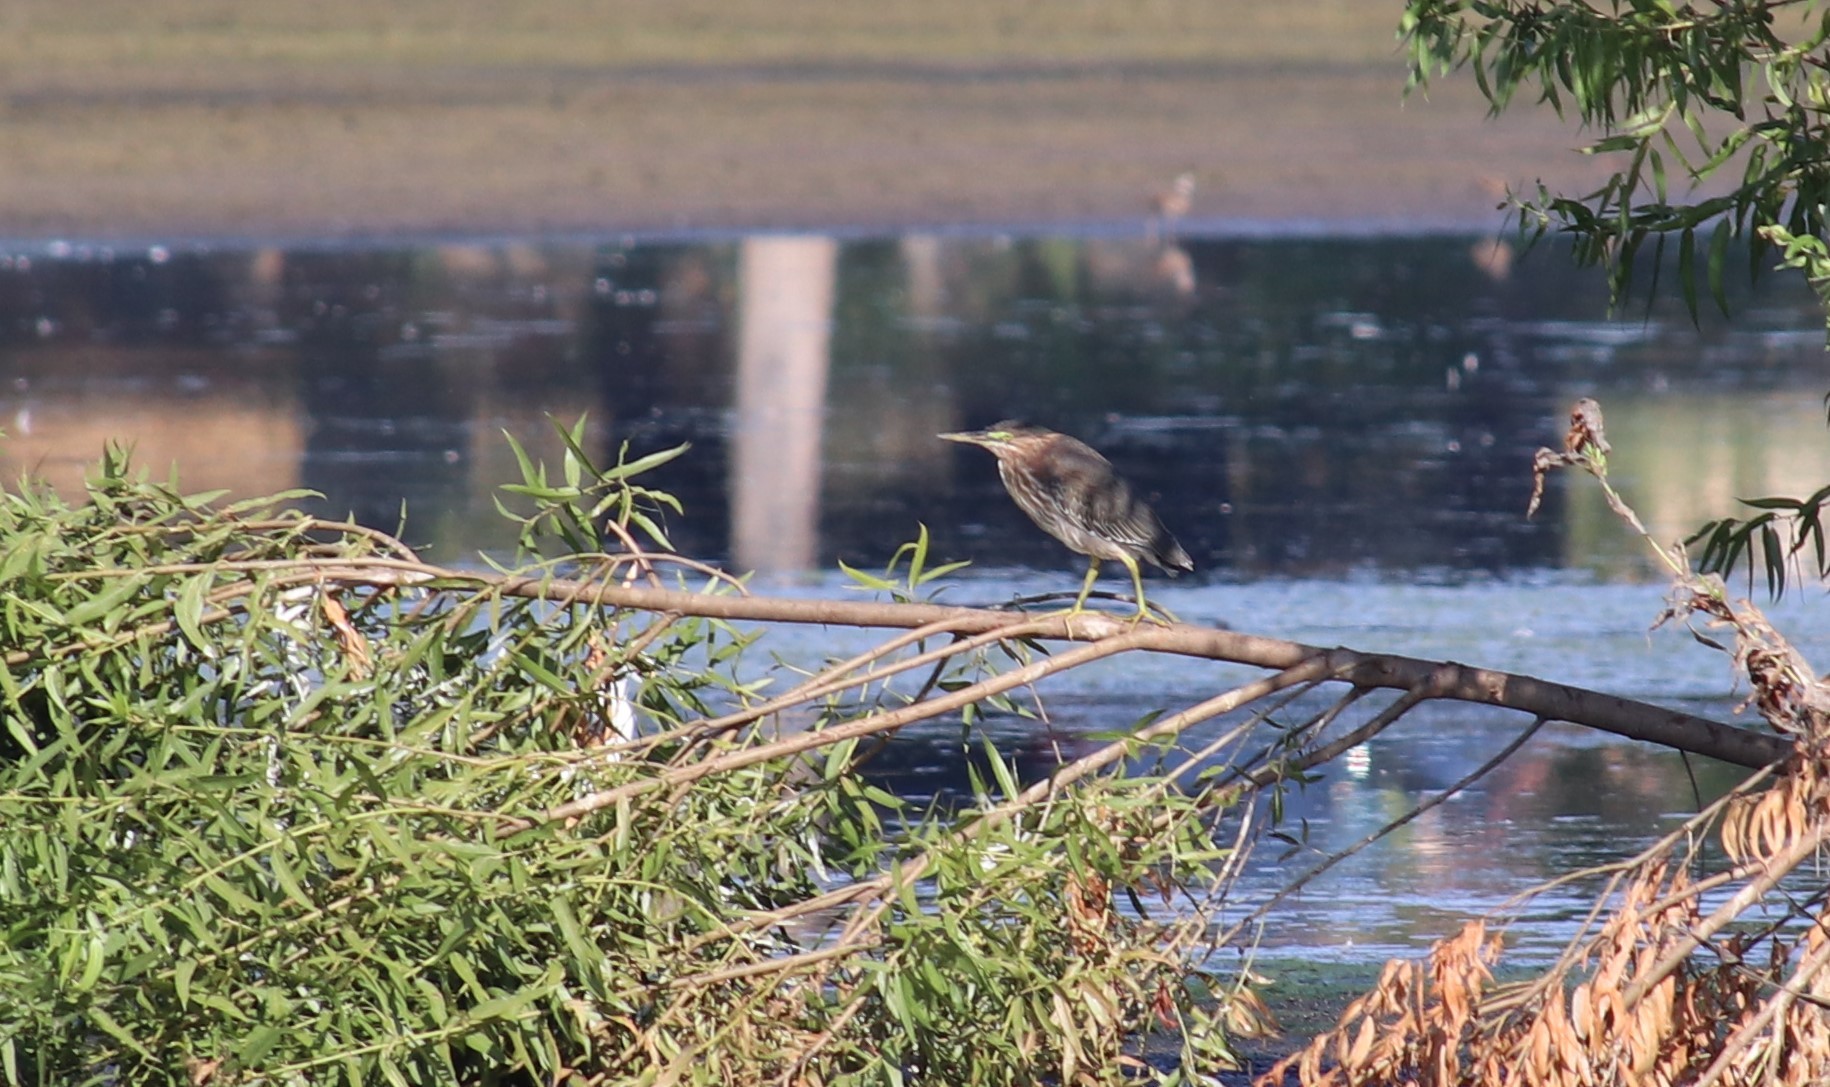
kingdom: Animalia
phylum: Chordata
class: Aves
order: Pelecaniformes
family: Ardeidae
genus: Butorides
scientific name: Butorides virescens
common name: Green heron
